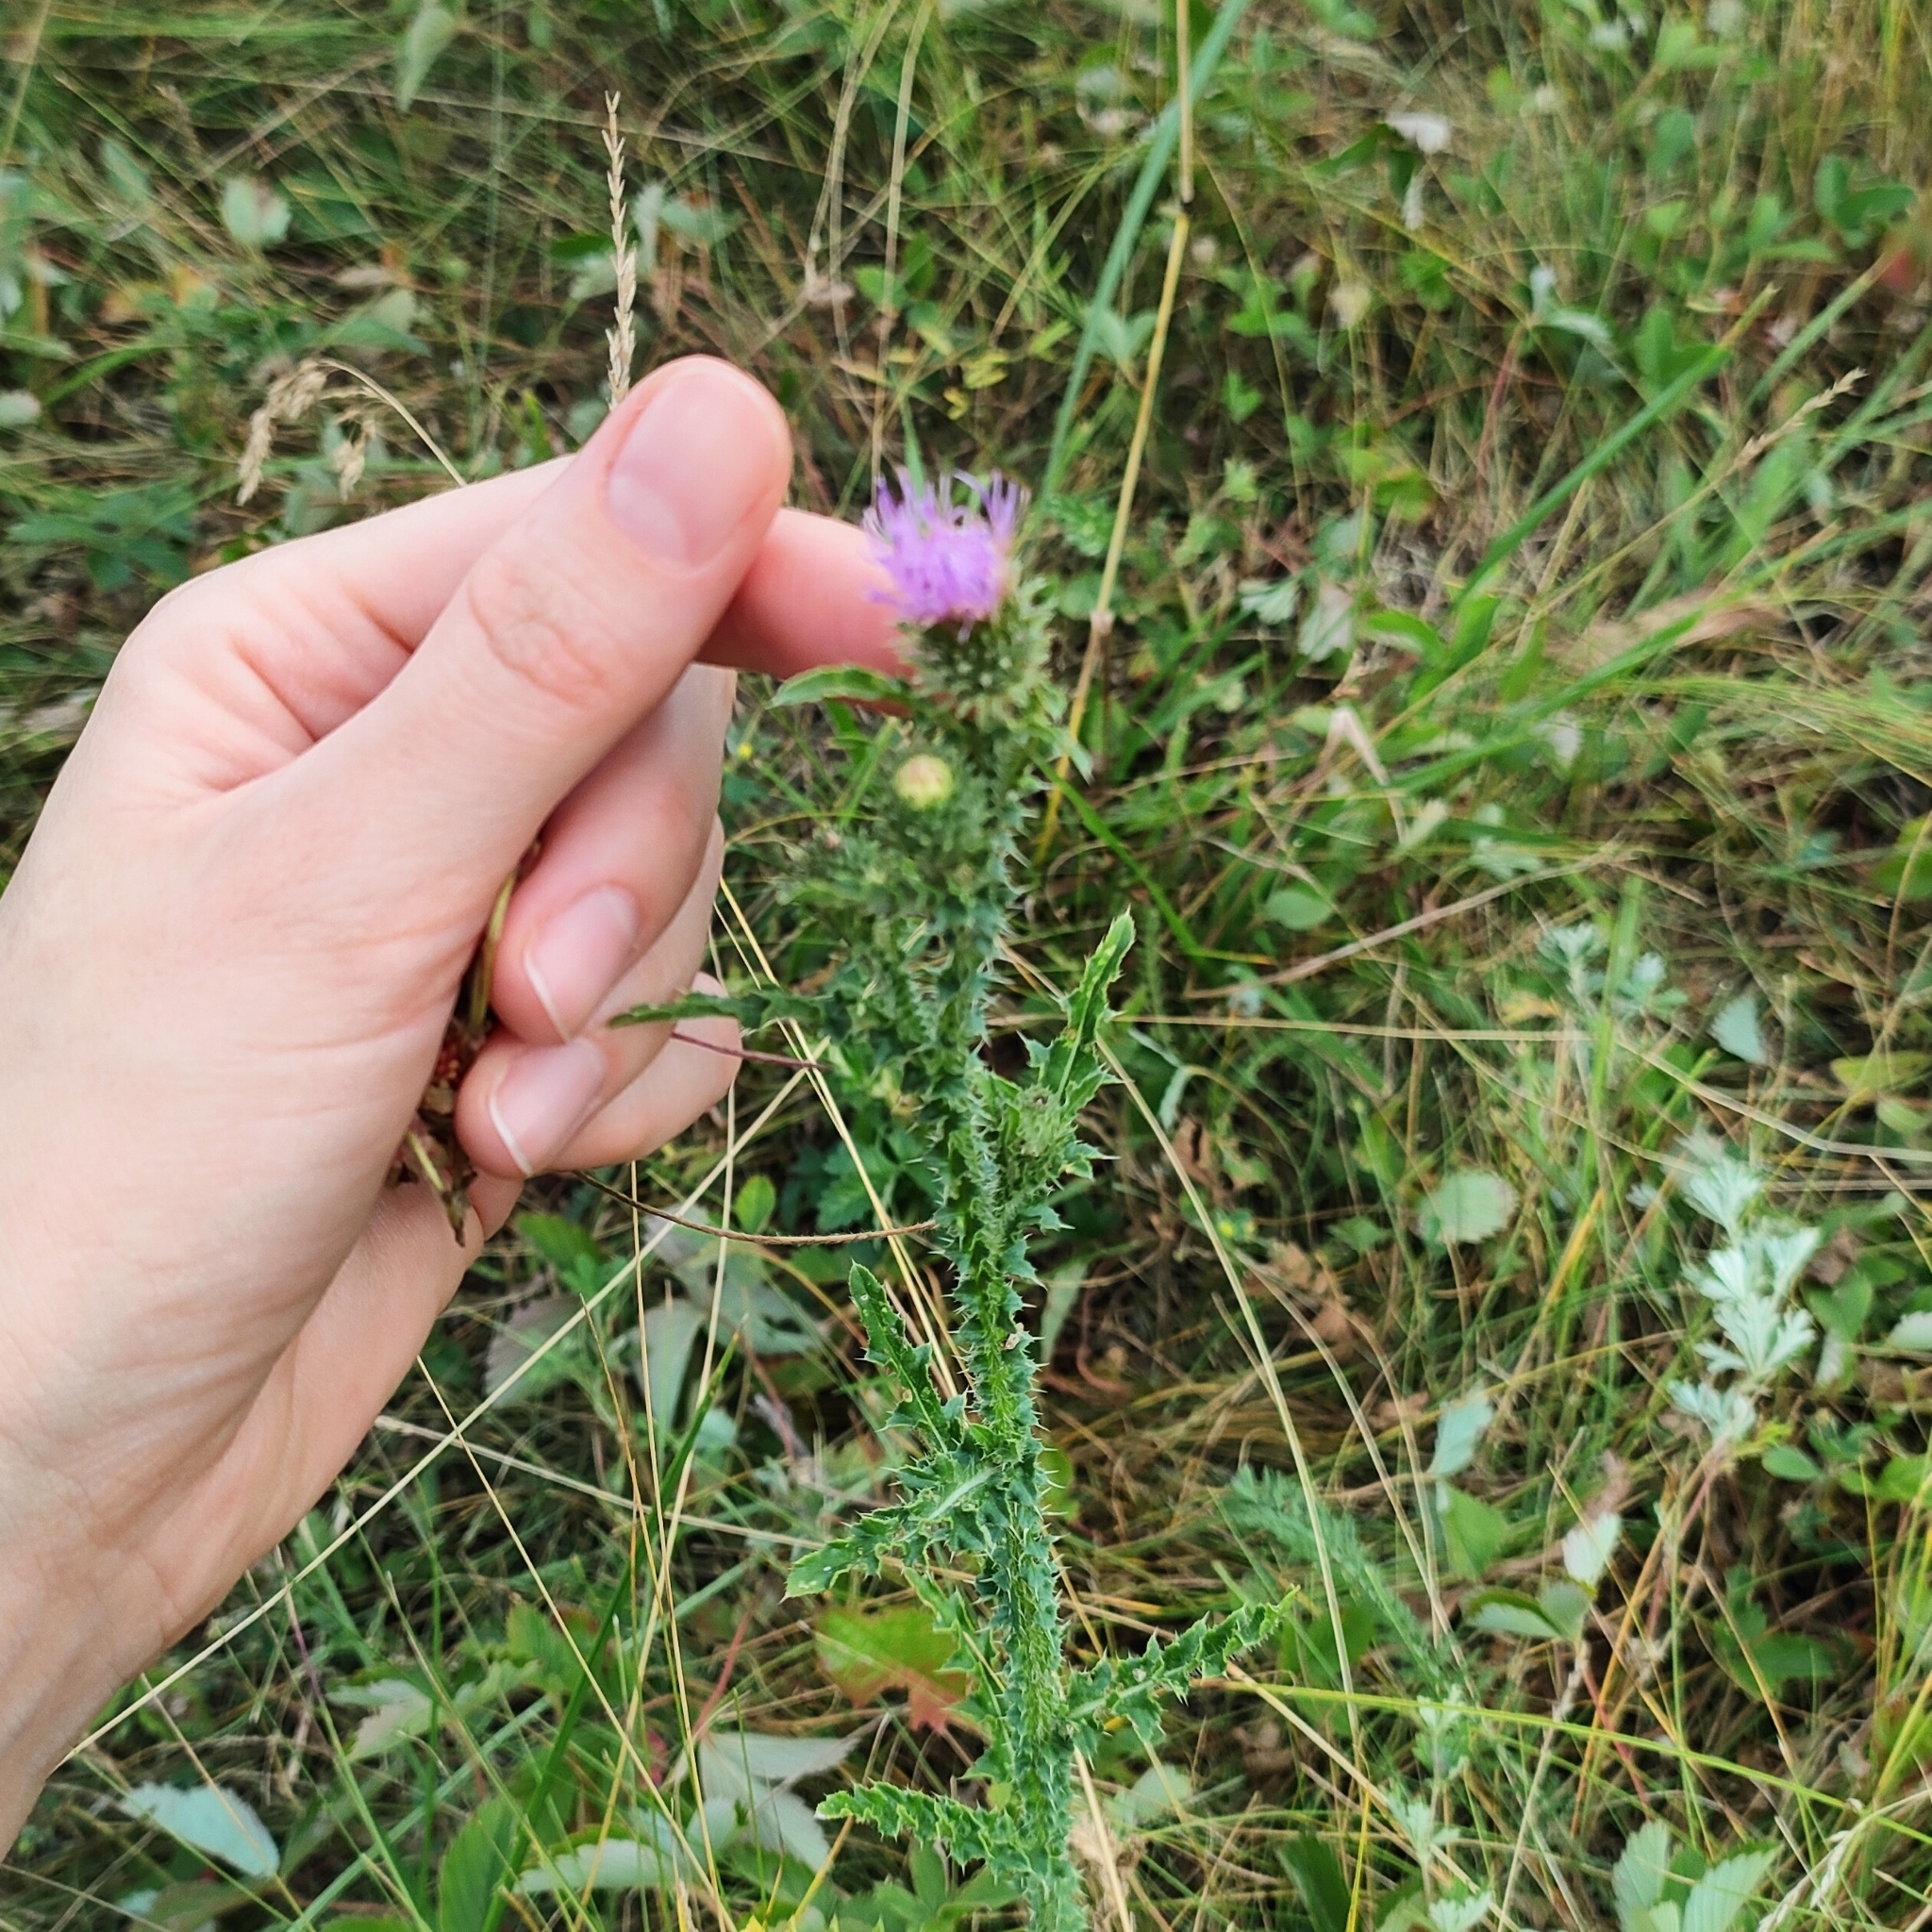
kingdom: Plantae
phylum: Tracheophyta
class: Magnoliopsida
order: Asterales
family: Asteraceae
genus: Carduus
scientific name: Carduus acanthoides
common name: Plumeless thistle
